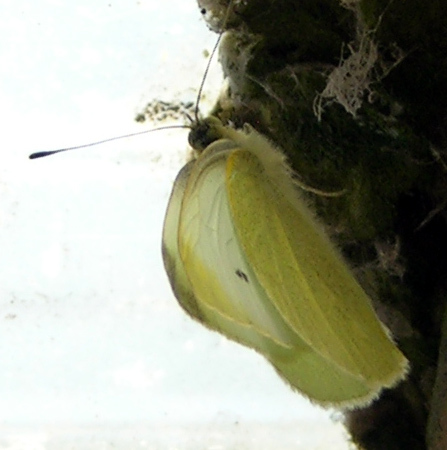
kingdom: Animalia
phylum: Arthropoda
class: Insecta
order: Lepidoptera
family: Pieridae
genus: Pieris
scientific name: Pieris rapae
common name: Small white
